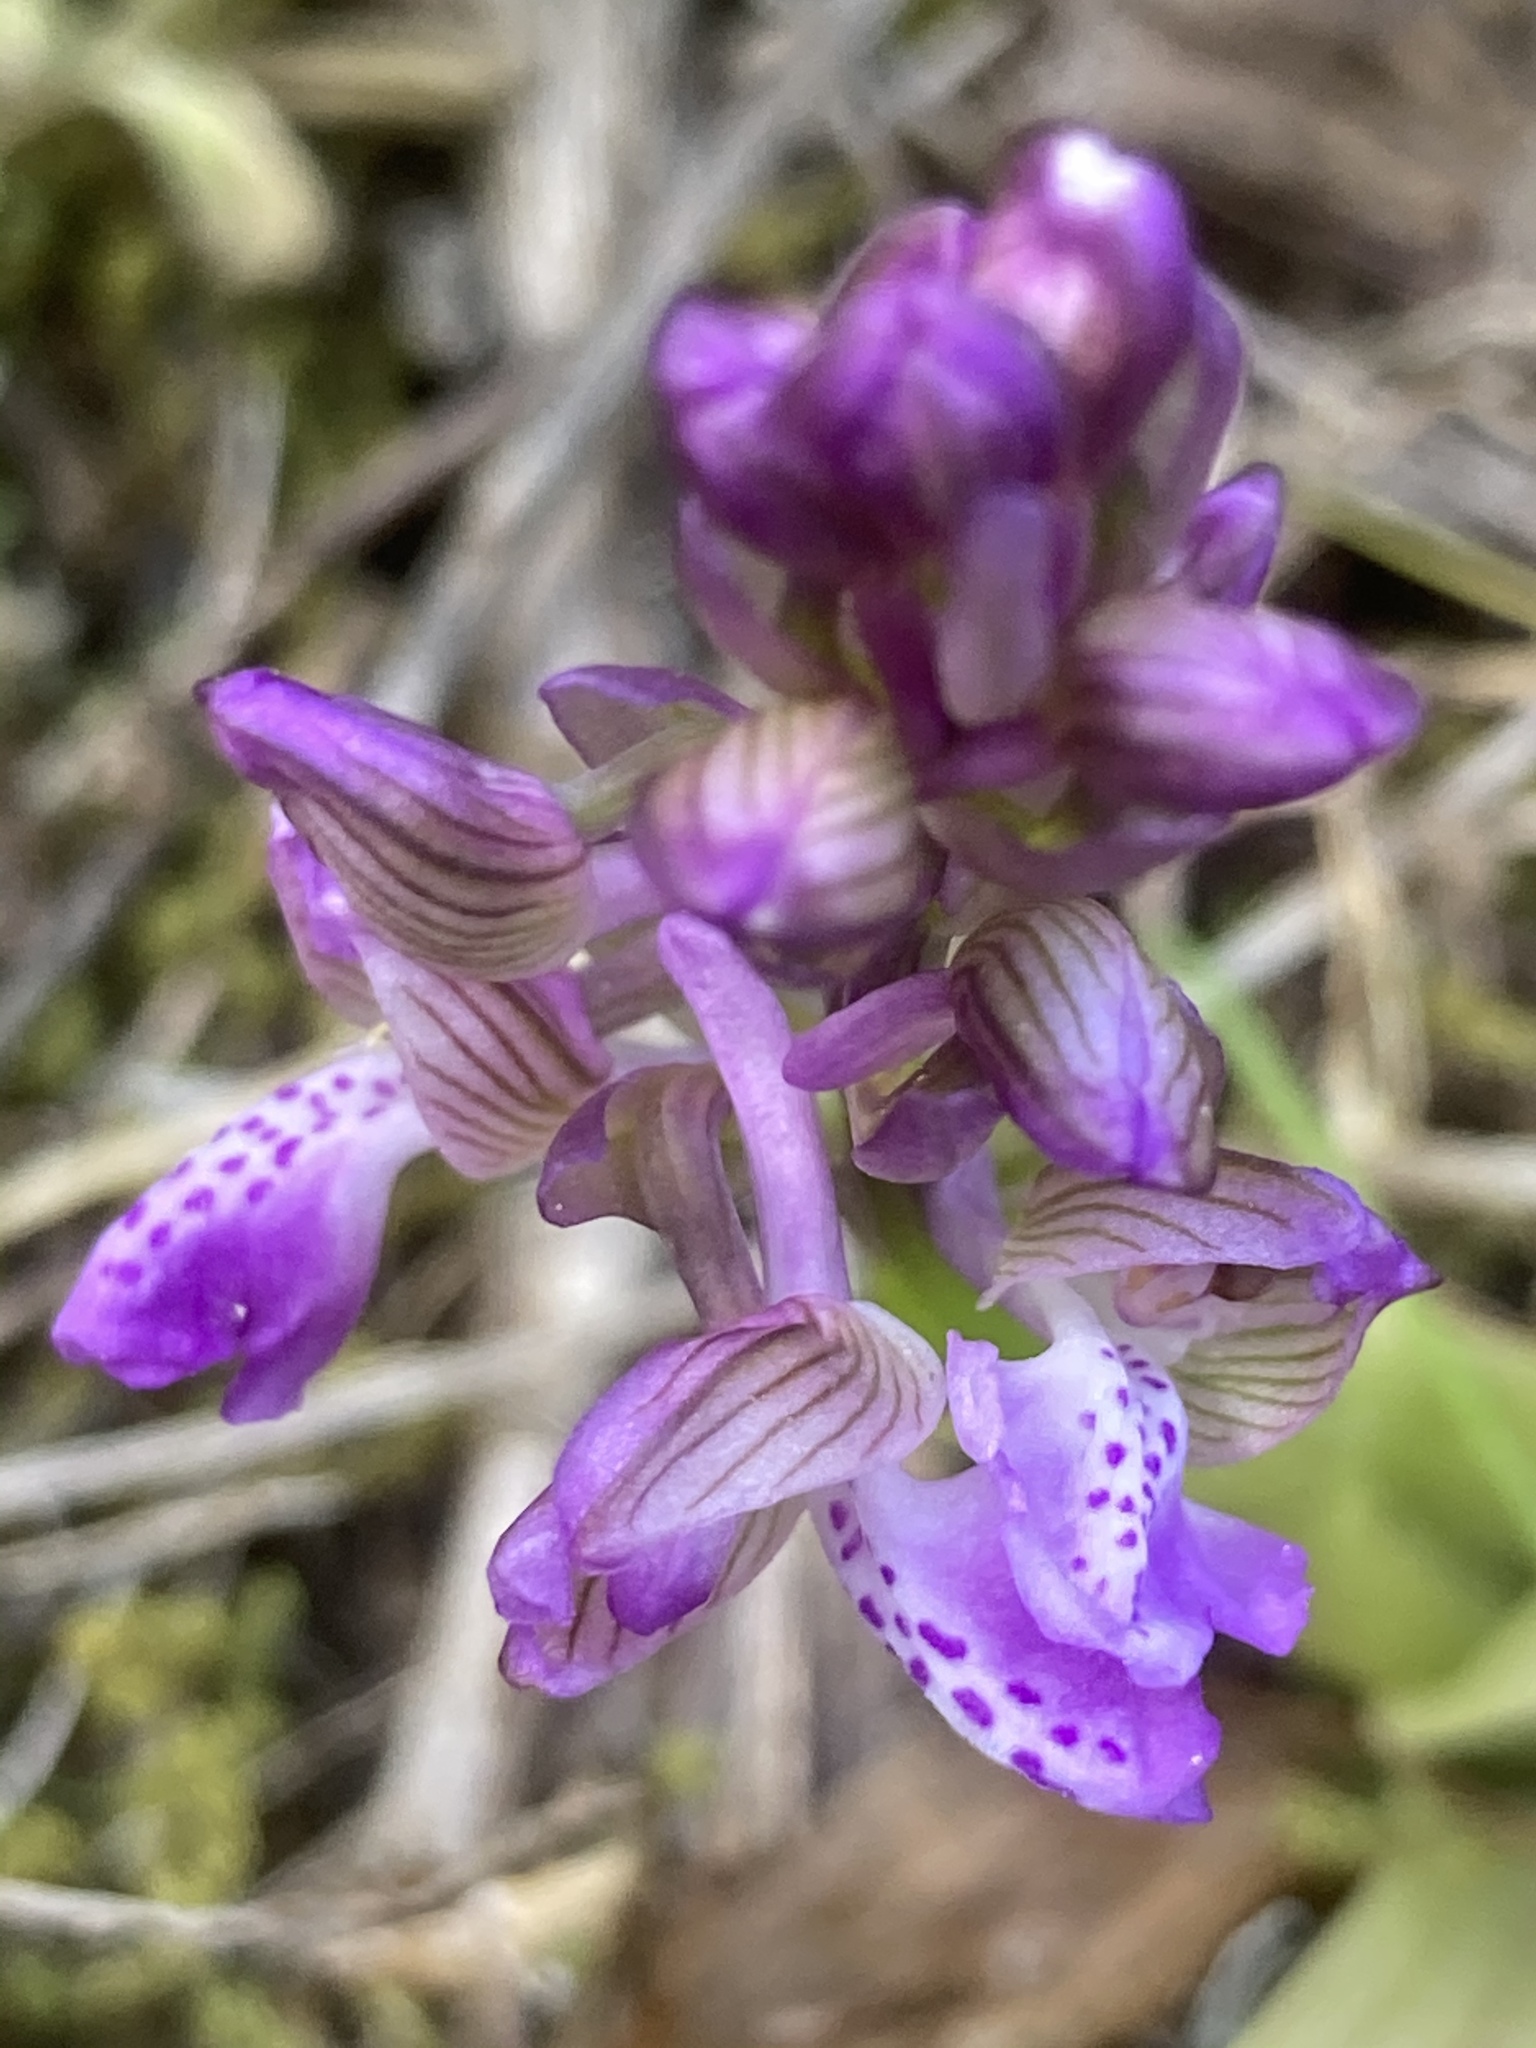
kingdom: Plantae
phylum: Tracheophyta
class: Liliopsida
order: Asparagales
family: Orchidaceae
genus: Anacamptis
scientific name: Anacamptis morio
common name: Green-winged orchid
